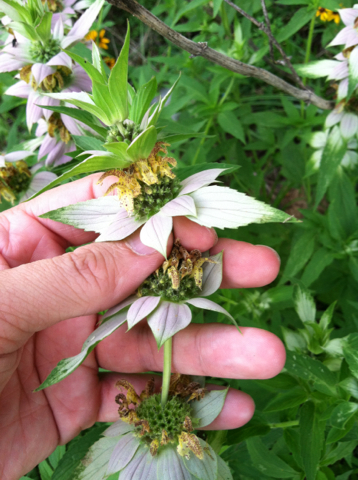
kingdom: Plantae
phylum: Tracheophyta
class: Magnoliopsida
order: Lamiales
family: Lamiaceae
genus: Monarda
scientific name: Monarda punctata
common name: Dotted monarda
